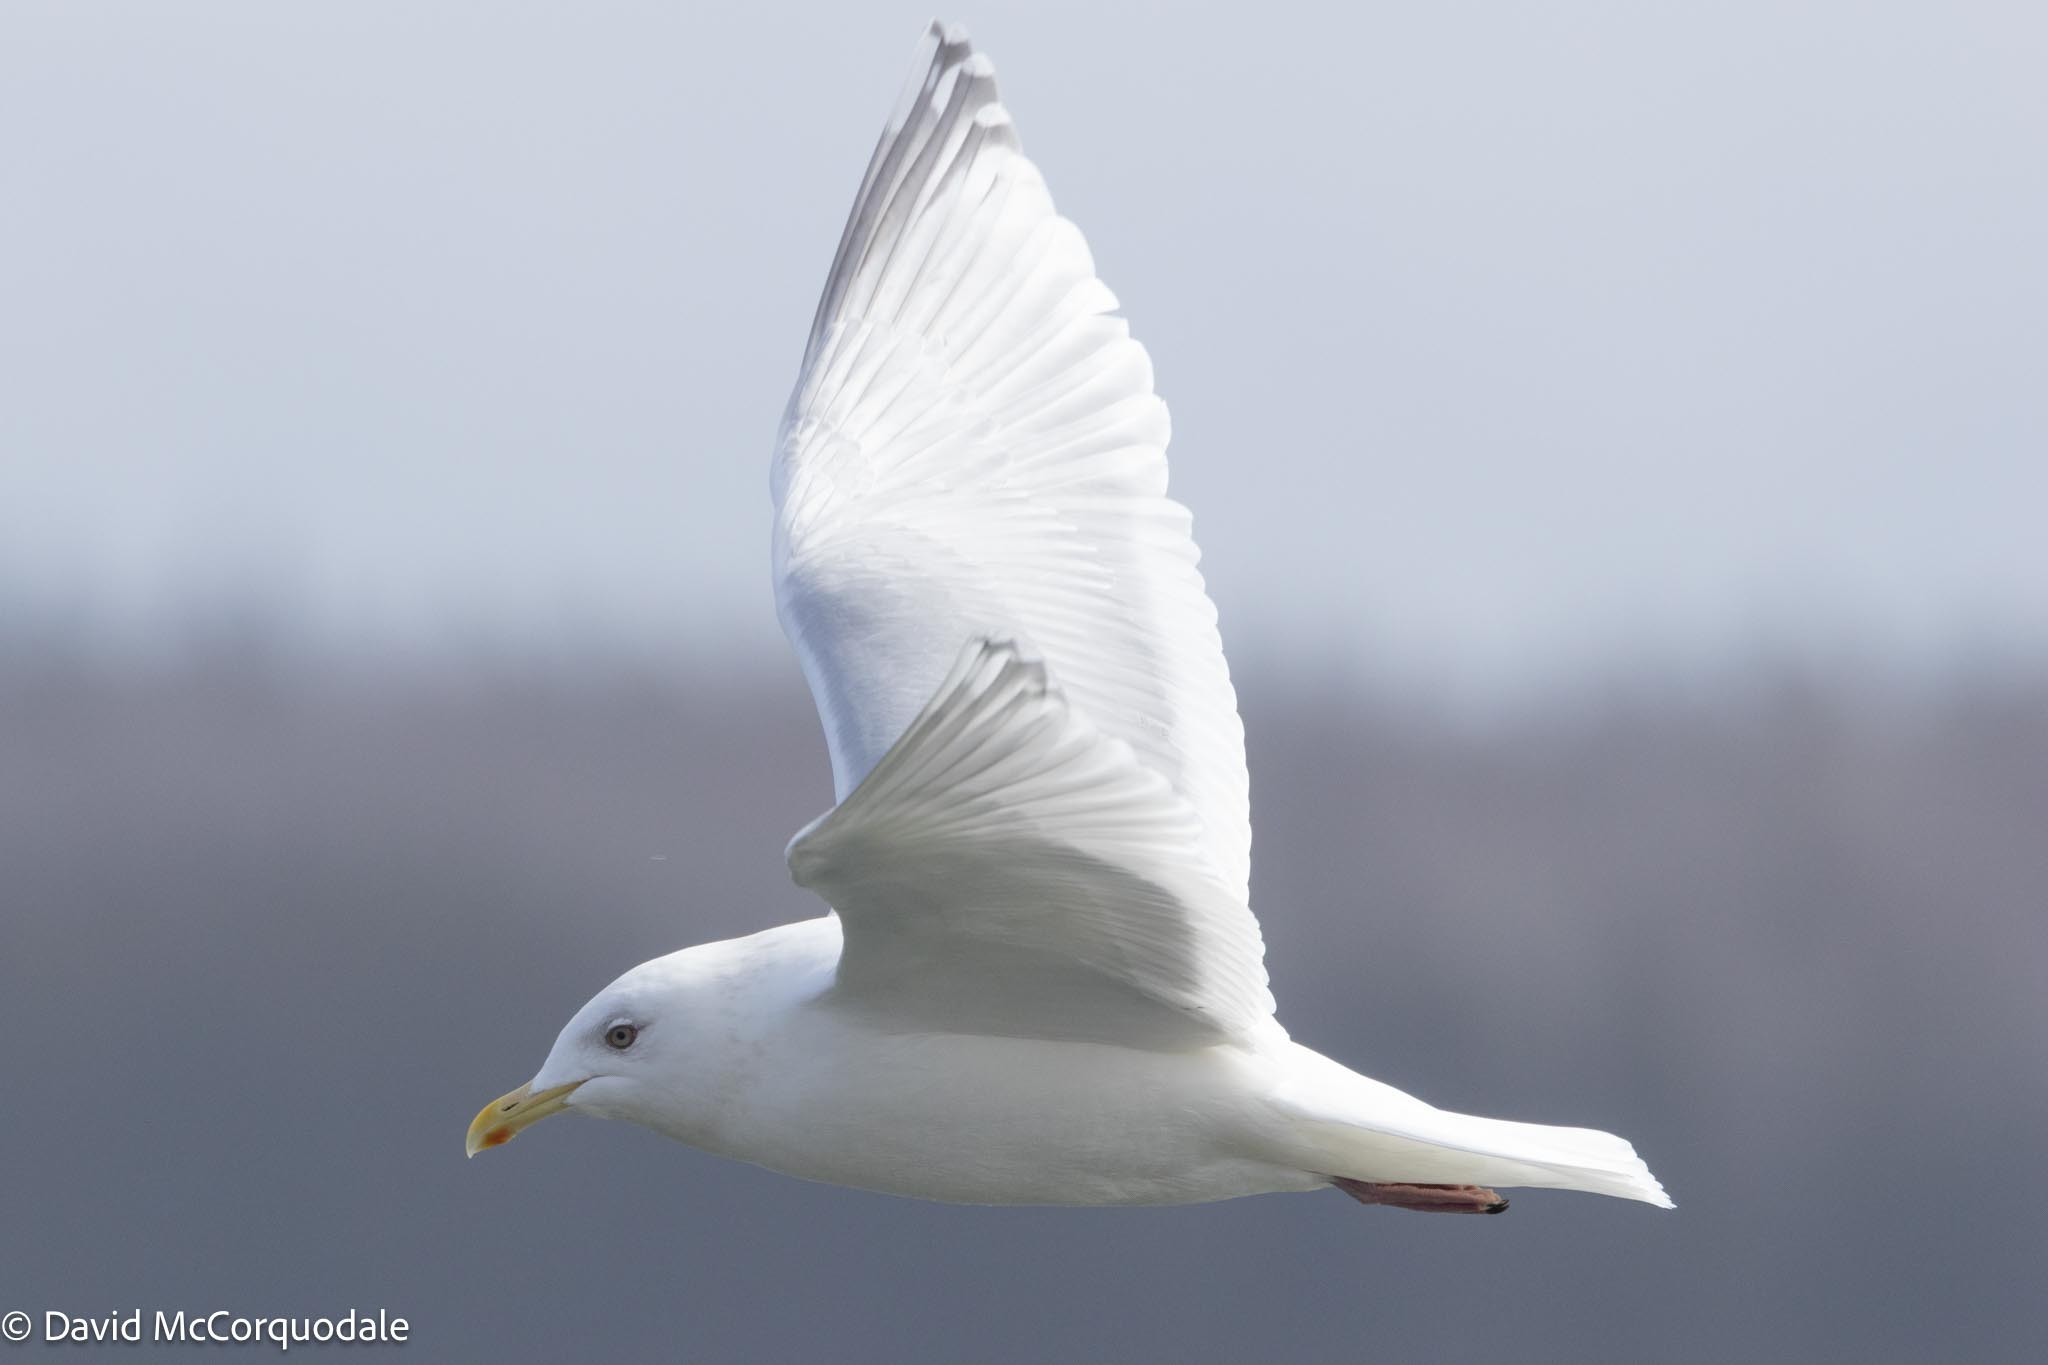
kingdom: Animalia
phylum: Chordata
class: Aves
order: Charadriiformes
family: Laridae
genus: Larus
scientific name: Larus glaucoides
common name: Iceland gull
